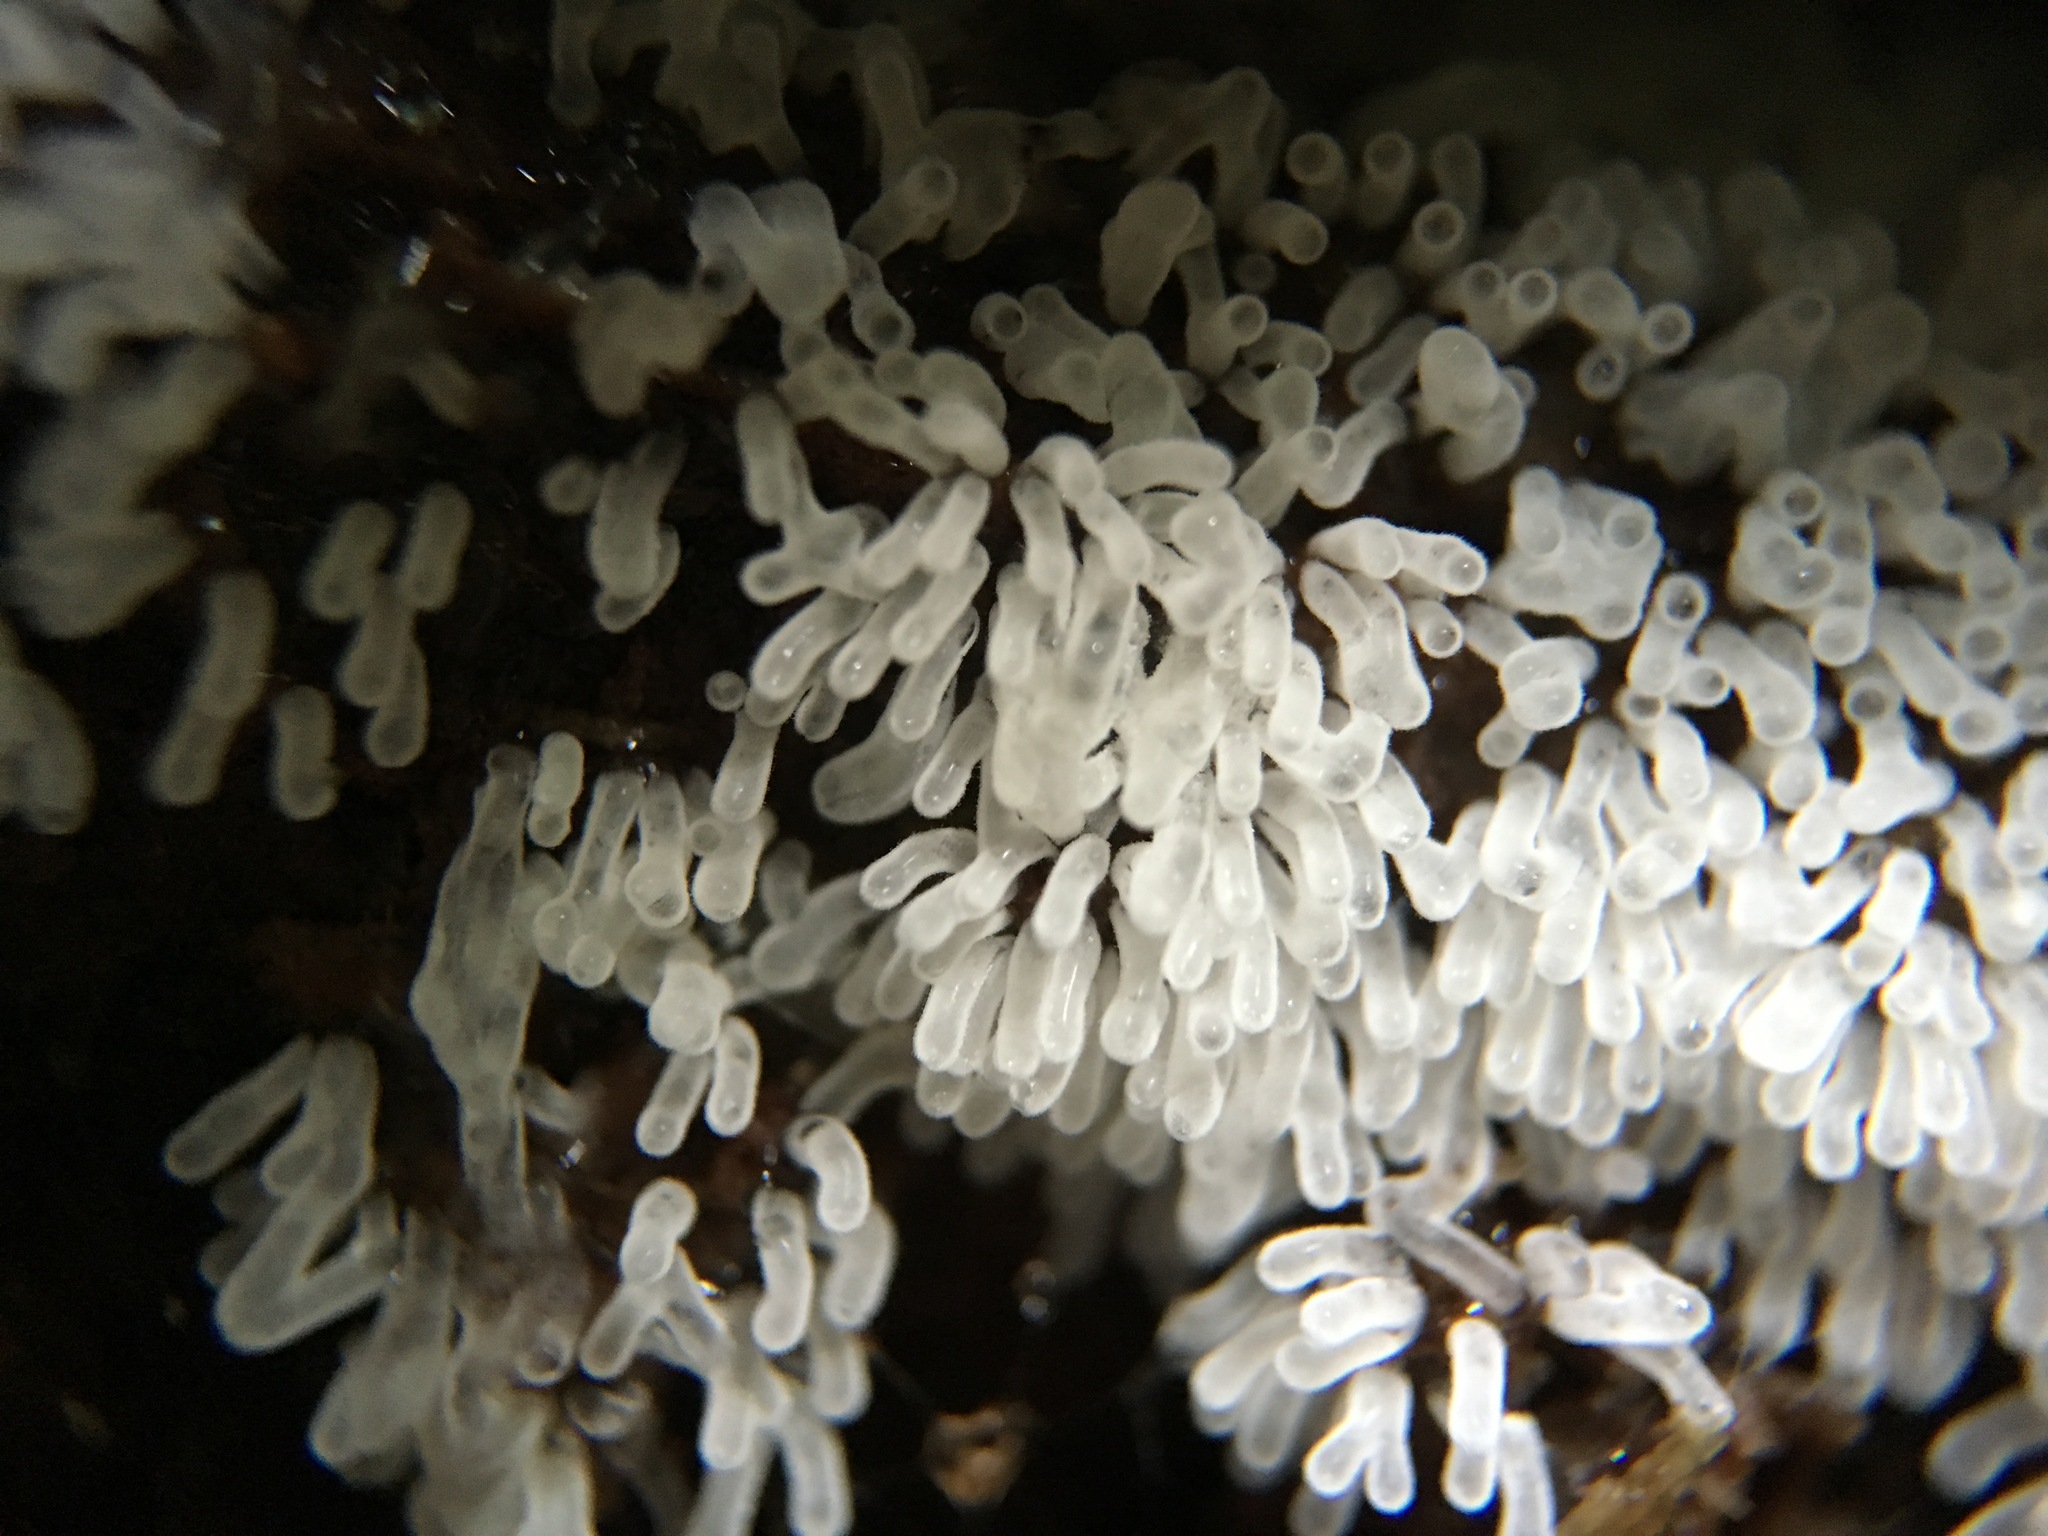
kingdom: Protozoa
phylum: Mycetozoa
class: Protosteliomycetes
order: Ceratiomyxales
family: Ceratiomyxaceae
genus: Ceratiomyxa
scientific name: Ceratiomyxa fruticulosa
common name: Honeycomb coral slime mold
